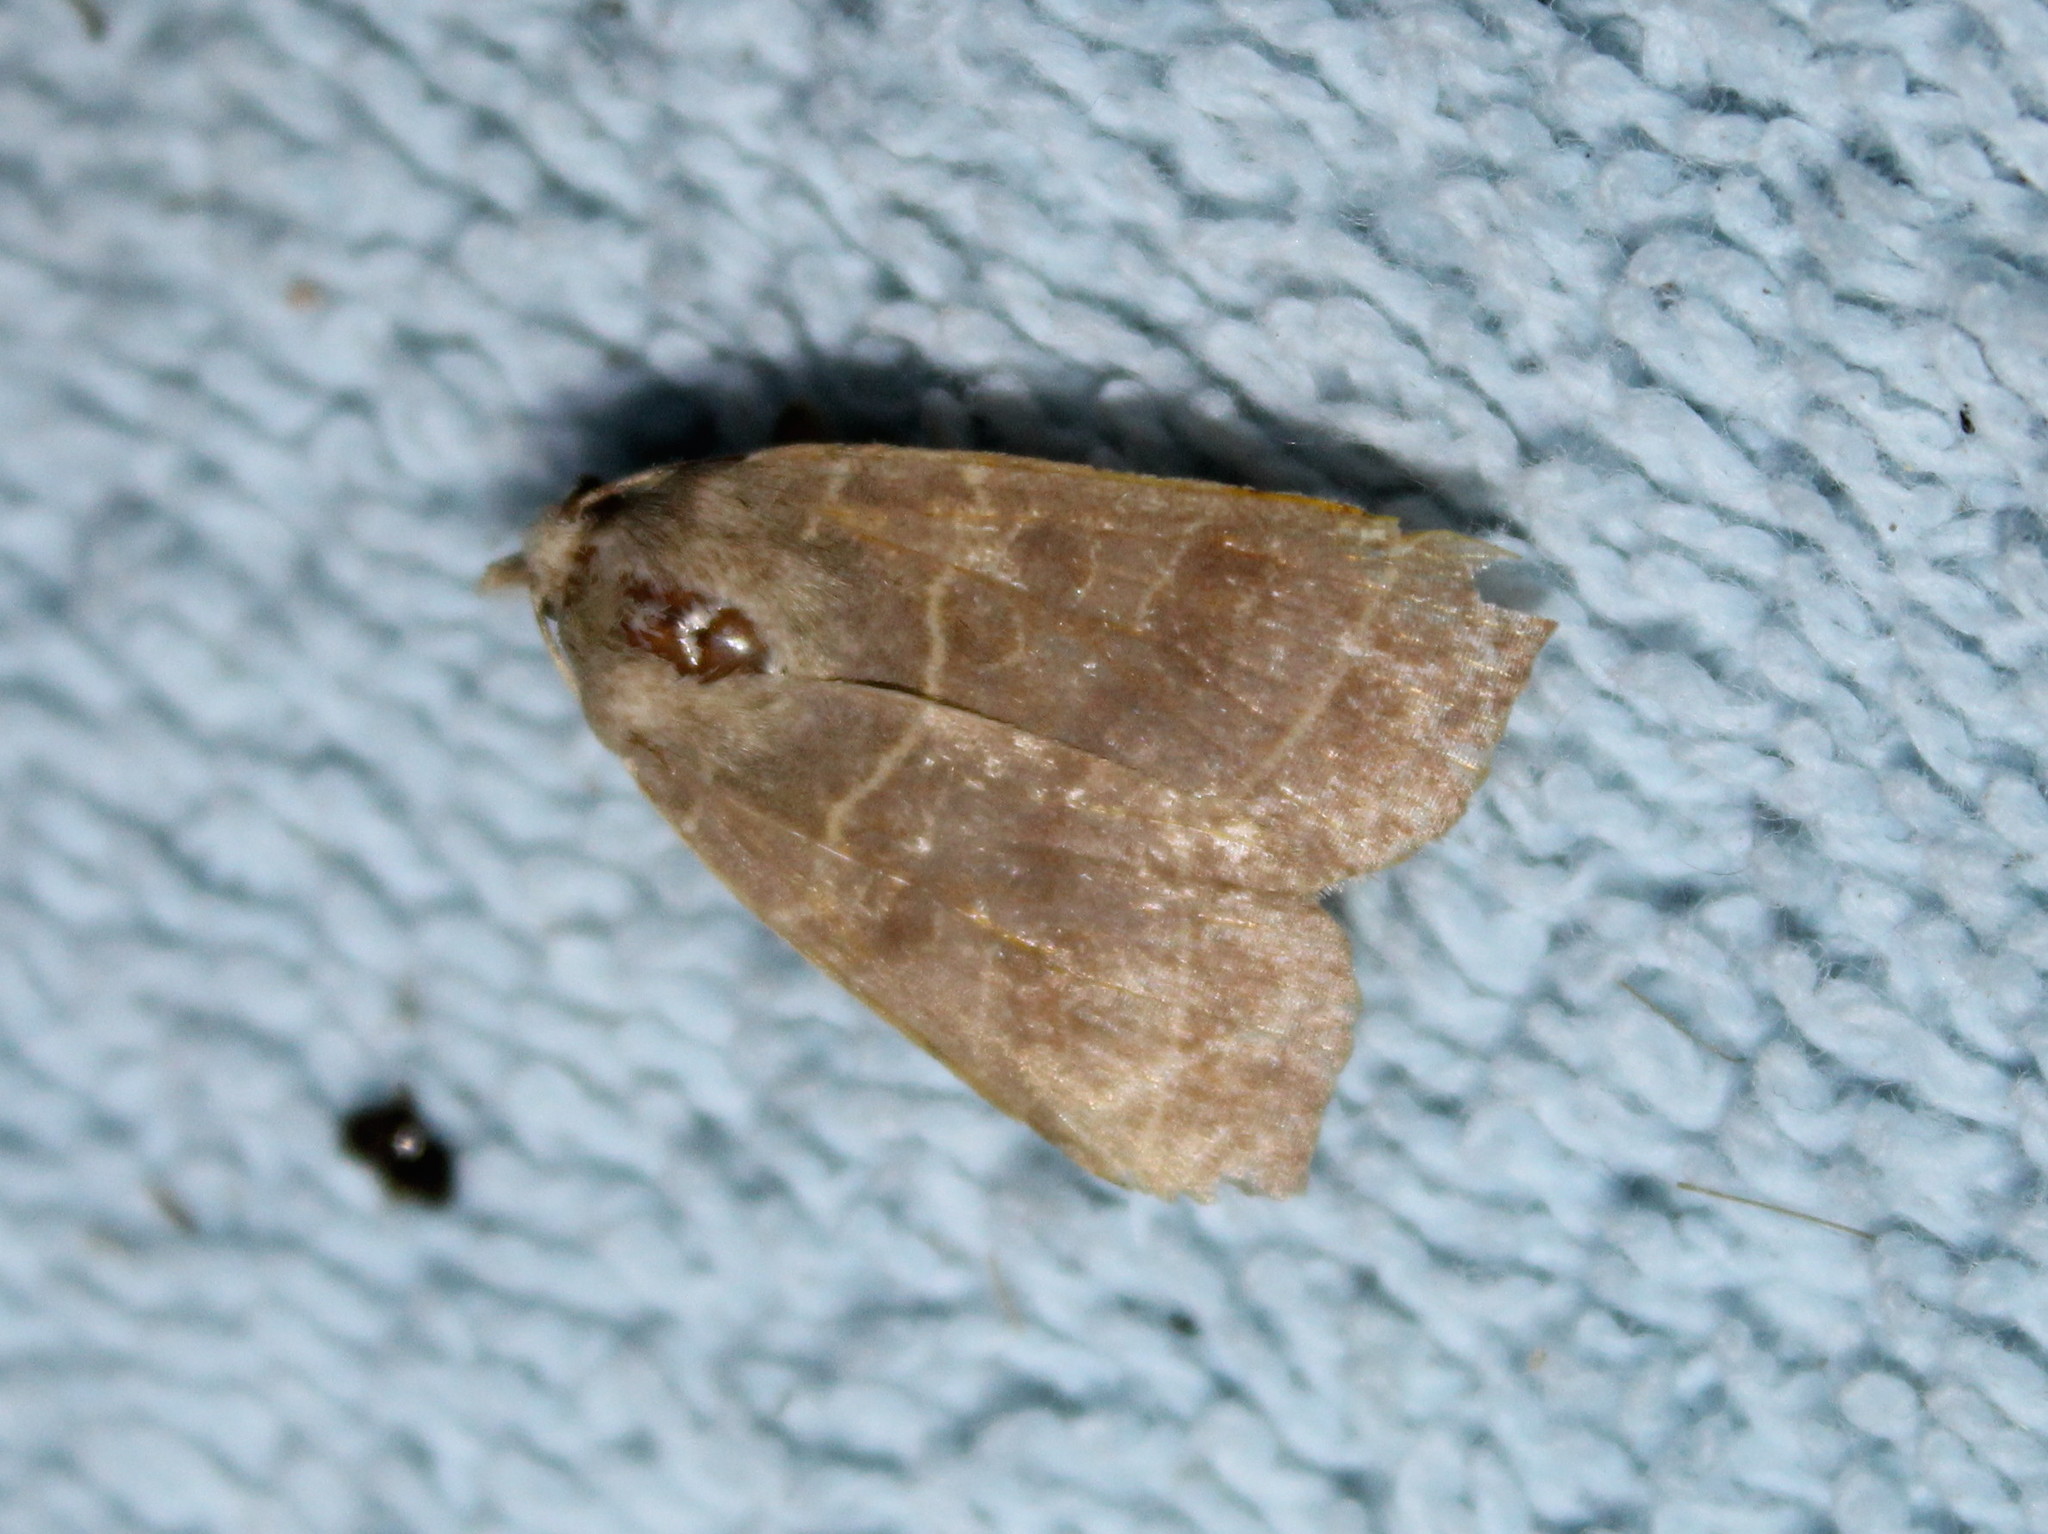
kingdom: Animalia
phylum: Arthropoda
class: Insecta
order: Lepidoptera
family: Noctuidae
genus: Ipimorpha
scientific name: Ipimorpha pleonectusa
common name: Even-lined sallow
